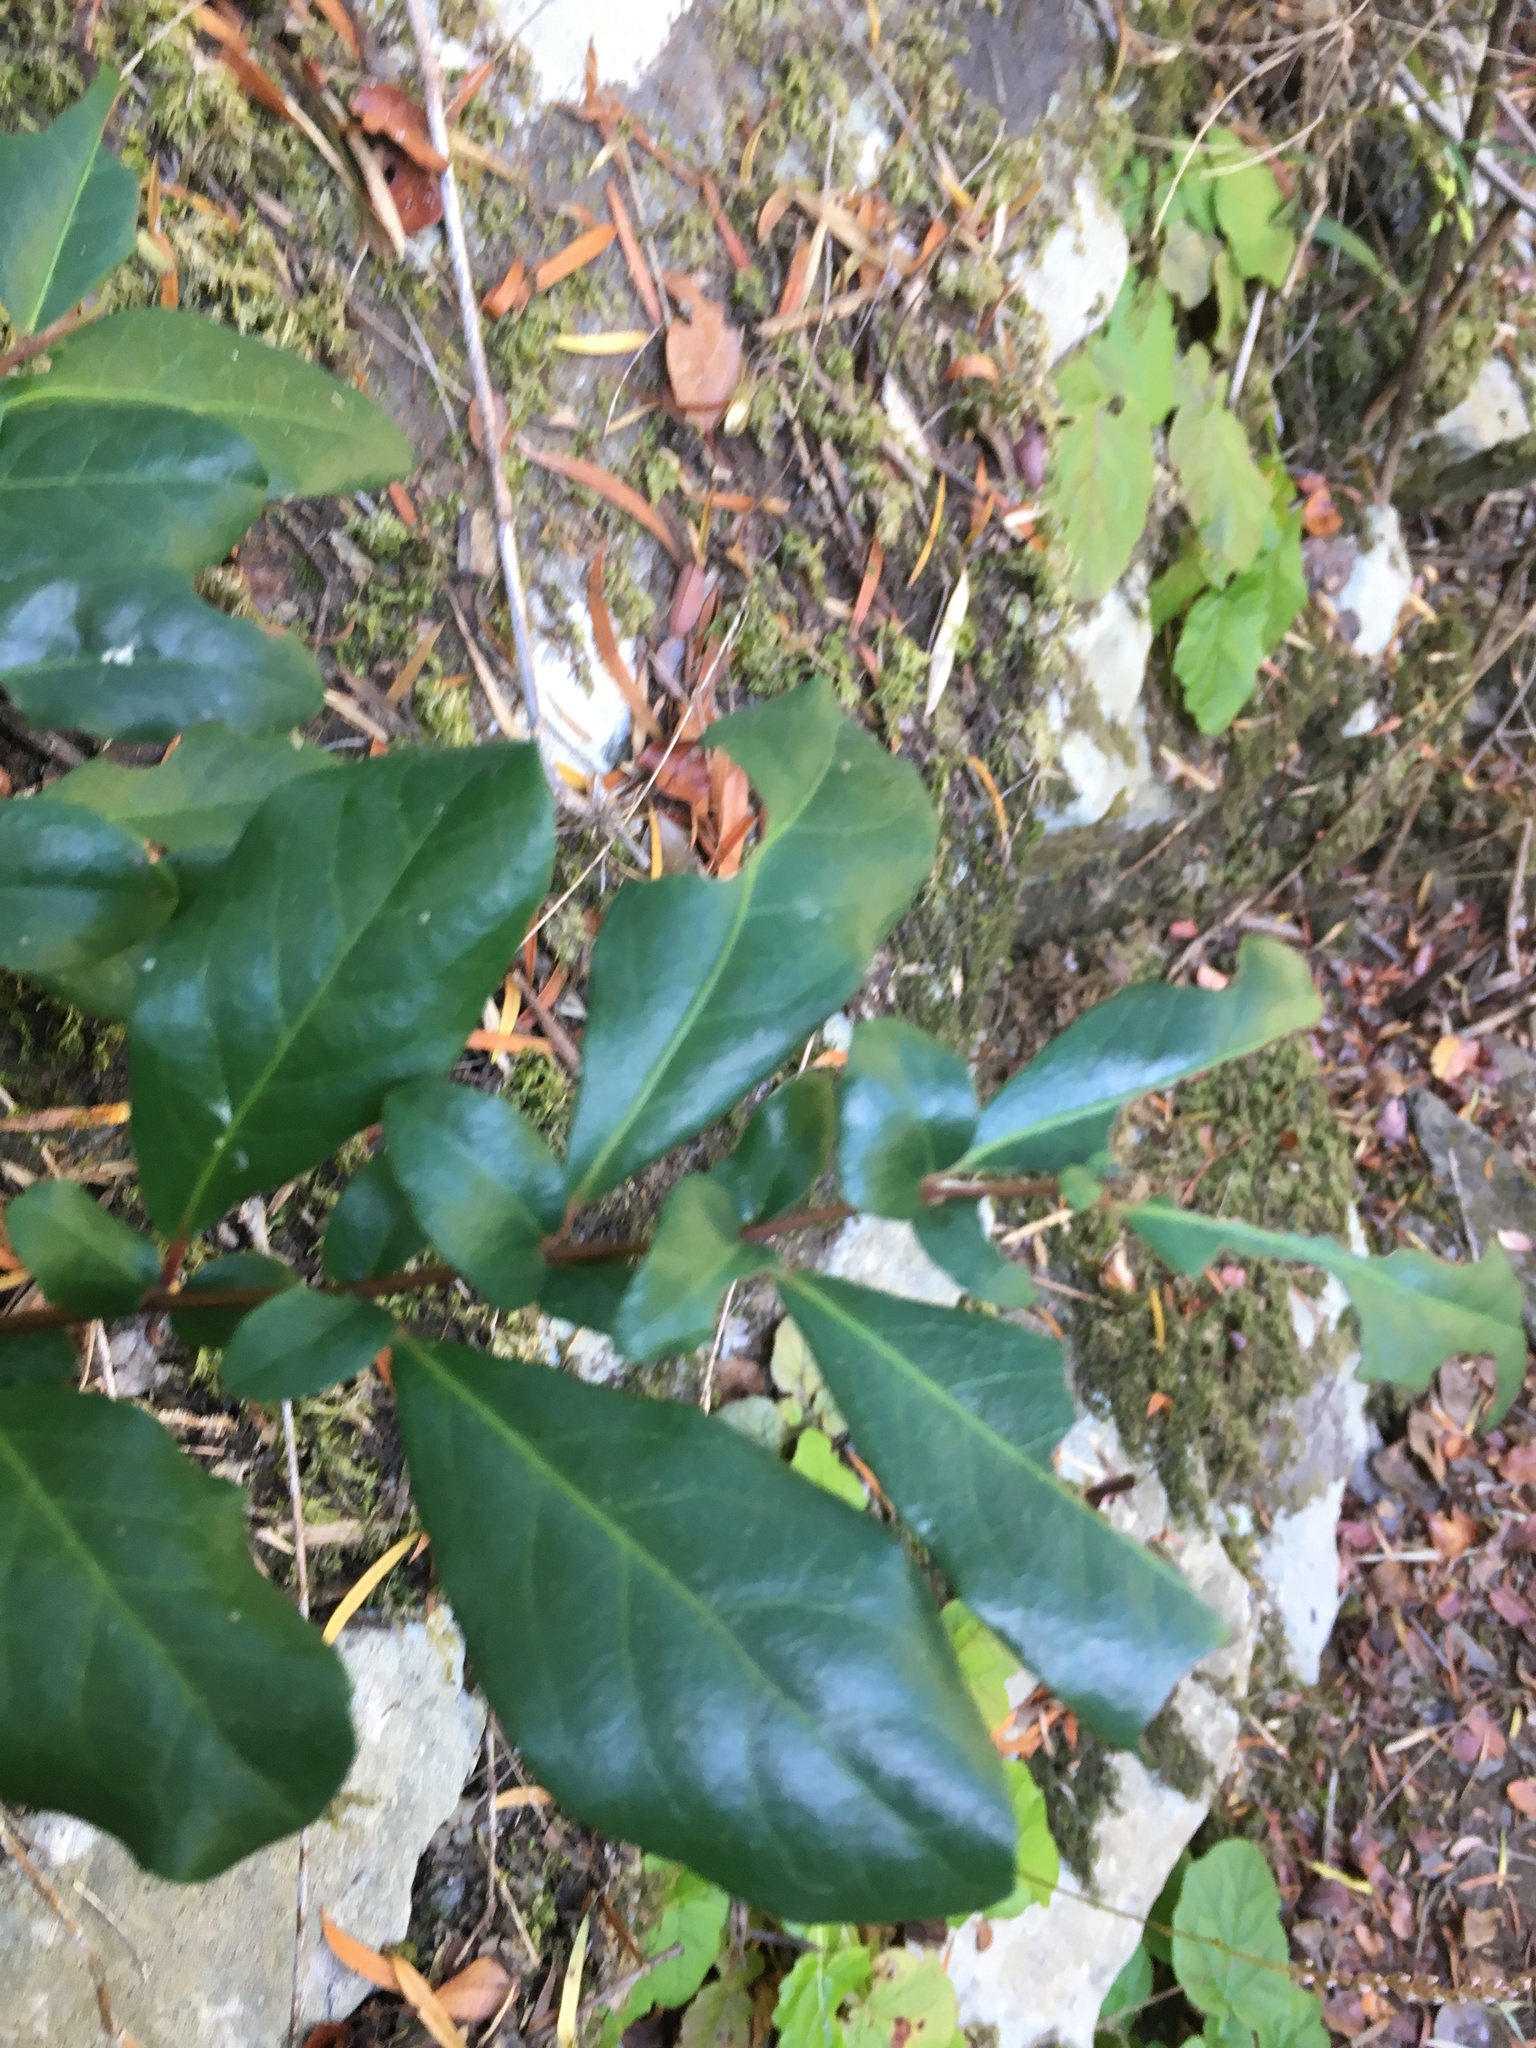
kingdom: Plantae
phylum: Tracheophyta
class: Magnoliopsida
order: Malpighiales
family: Salicaceae
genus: Azara
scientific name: Azara integrifolia
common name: Goldspire
